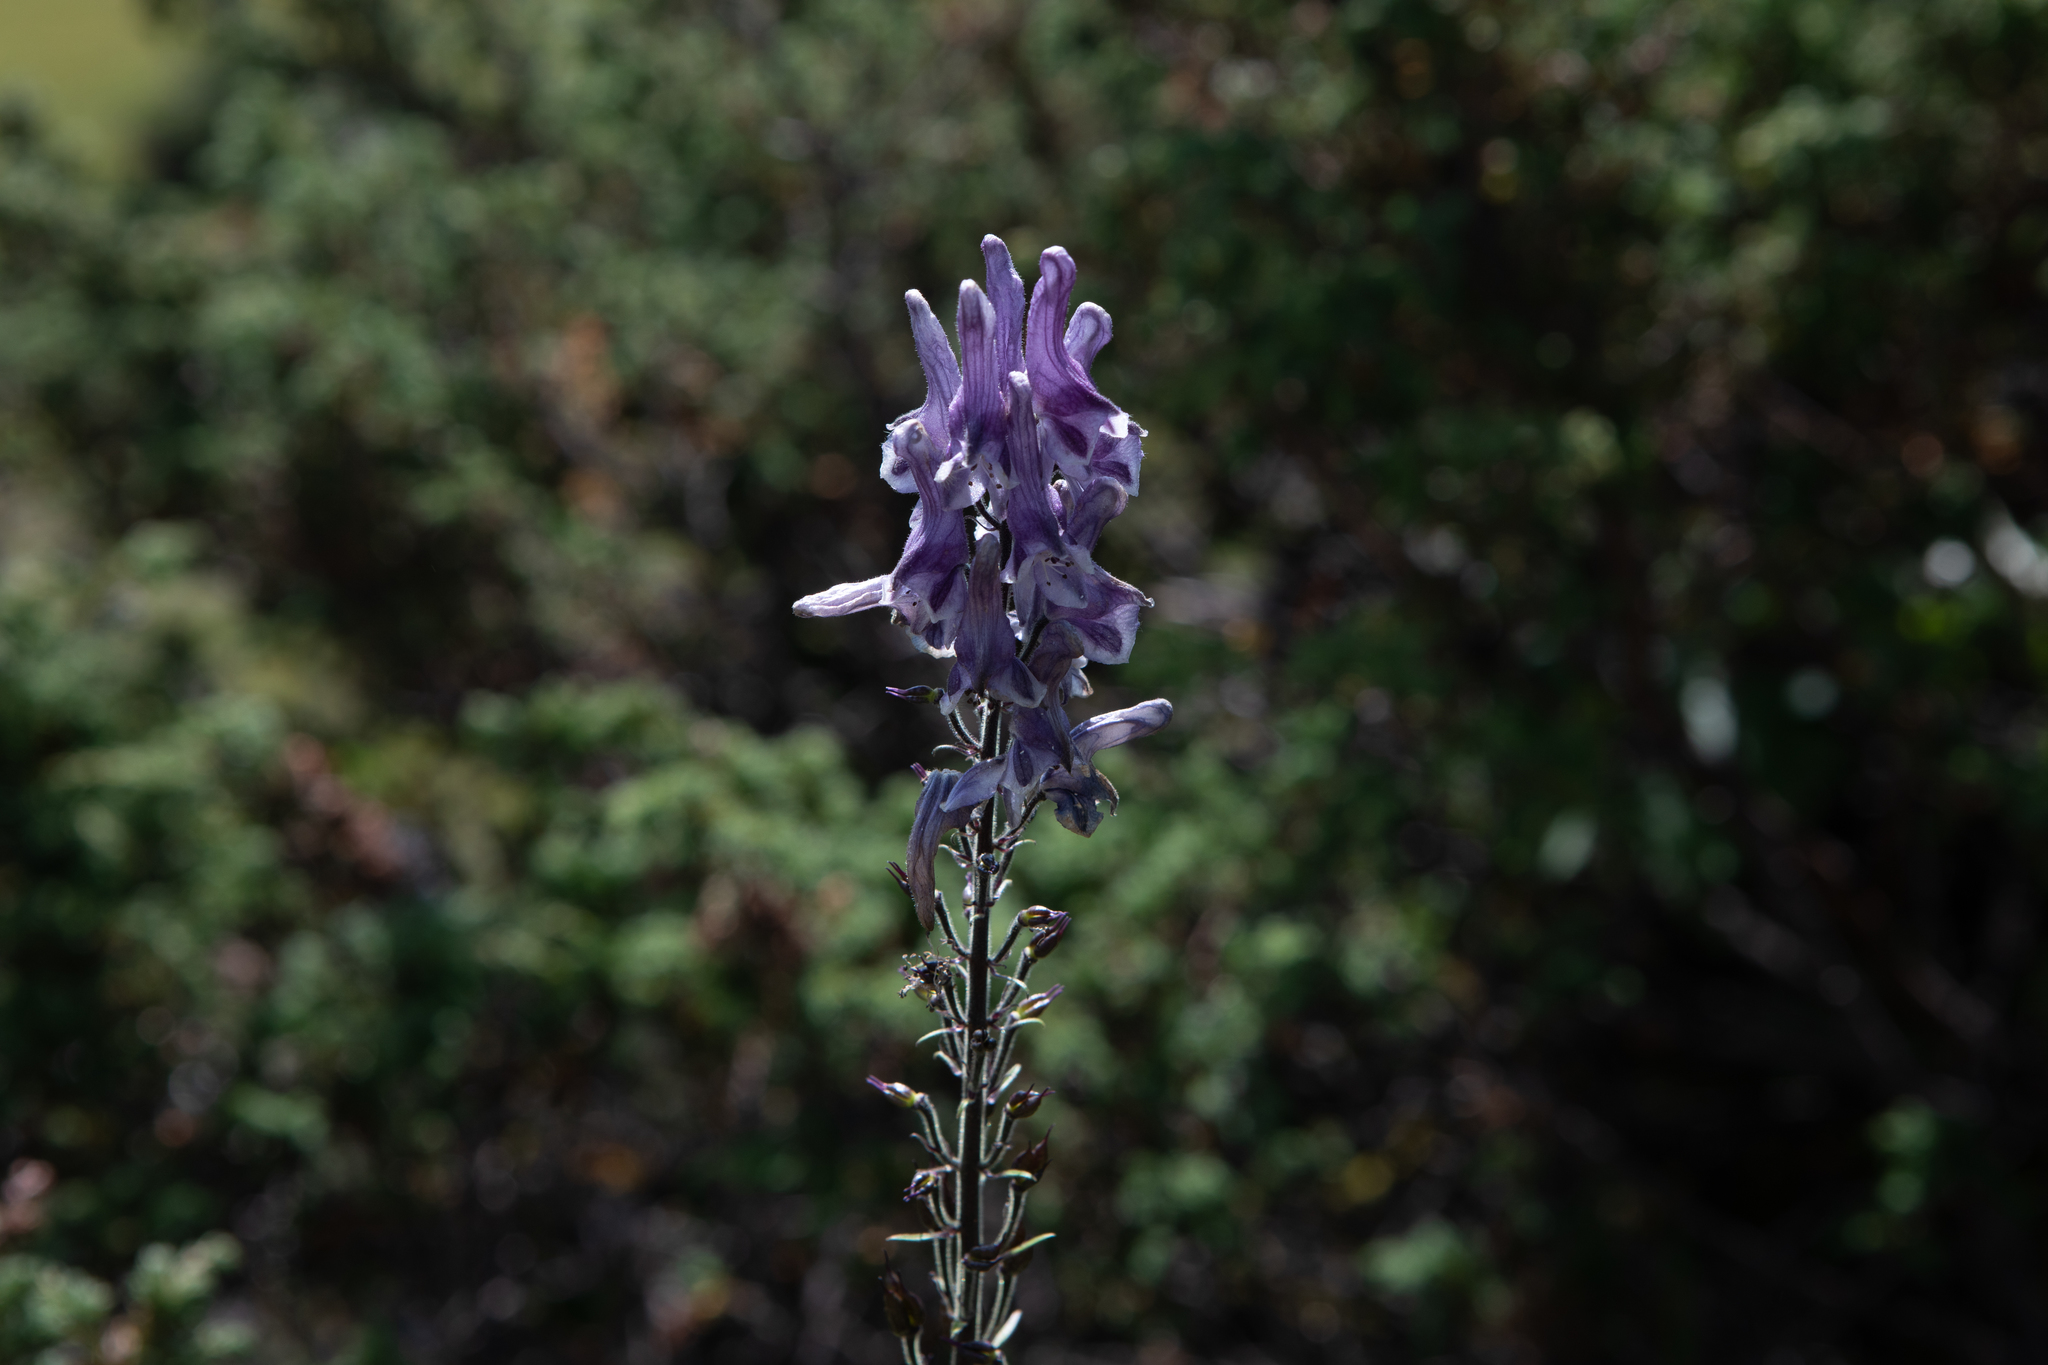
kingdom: Plantae
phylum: Tracheophyta
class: Magnoliopsida
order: Ranunculales
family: Ranunculaceae
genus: Aconitum
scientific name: Aconitum septentrionale
